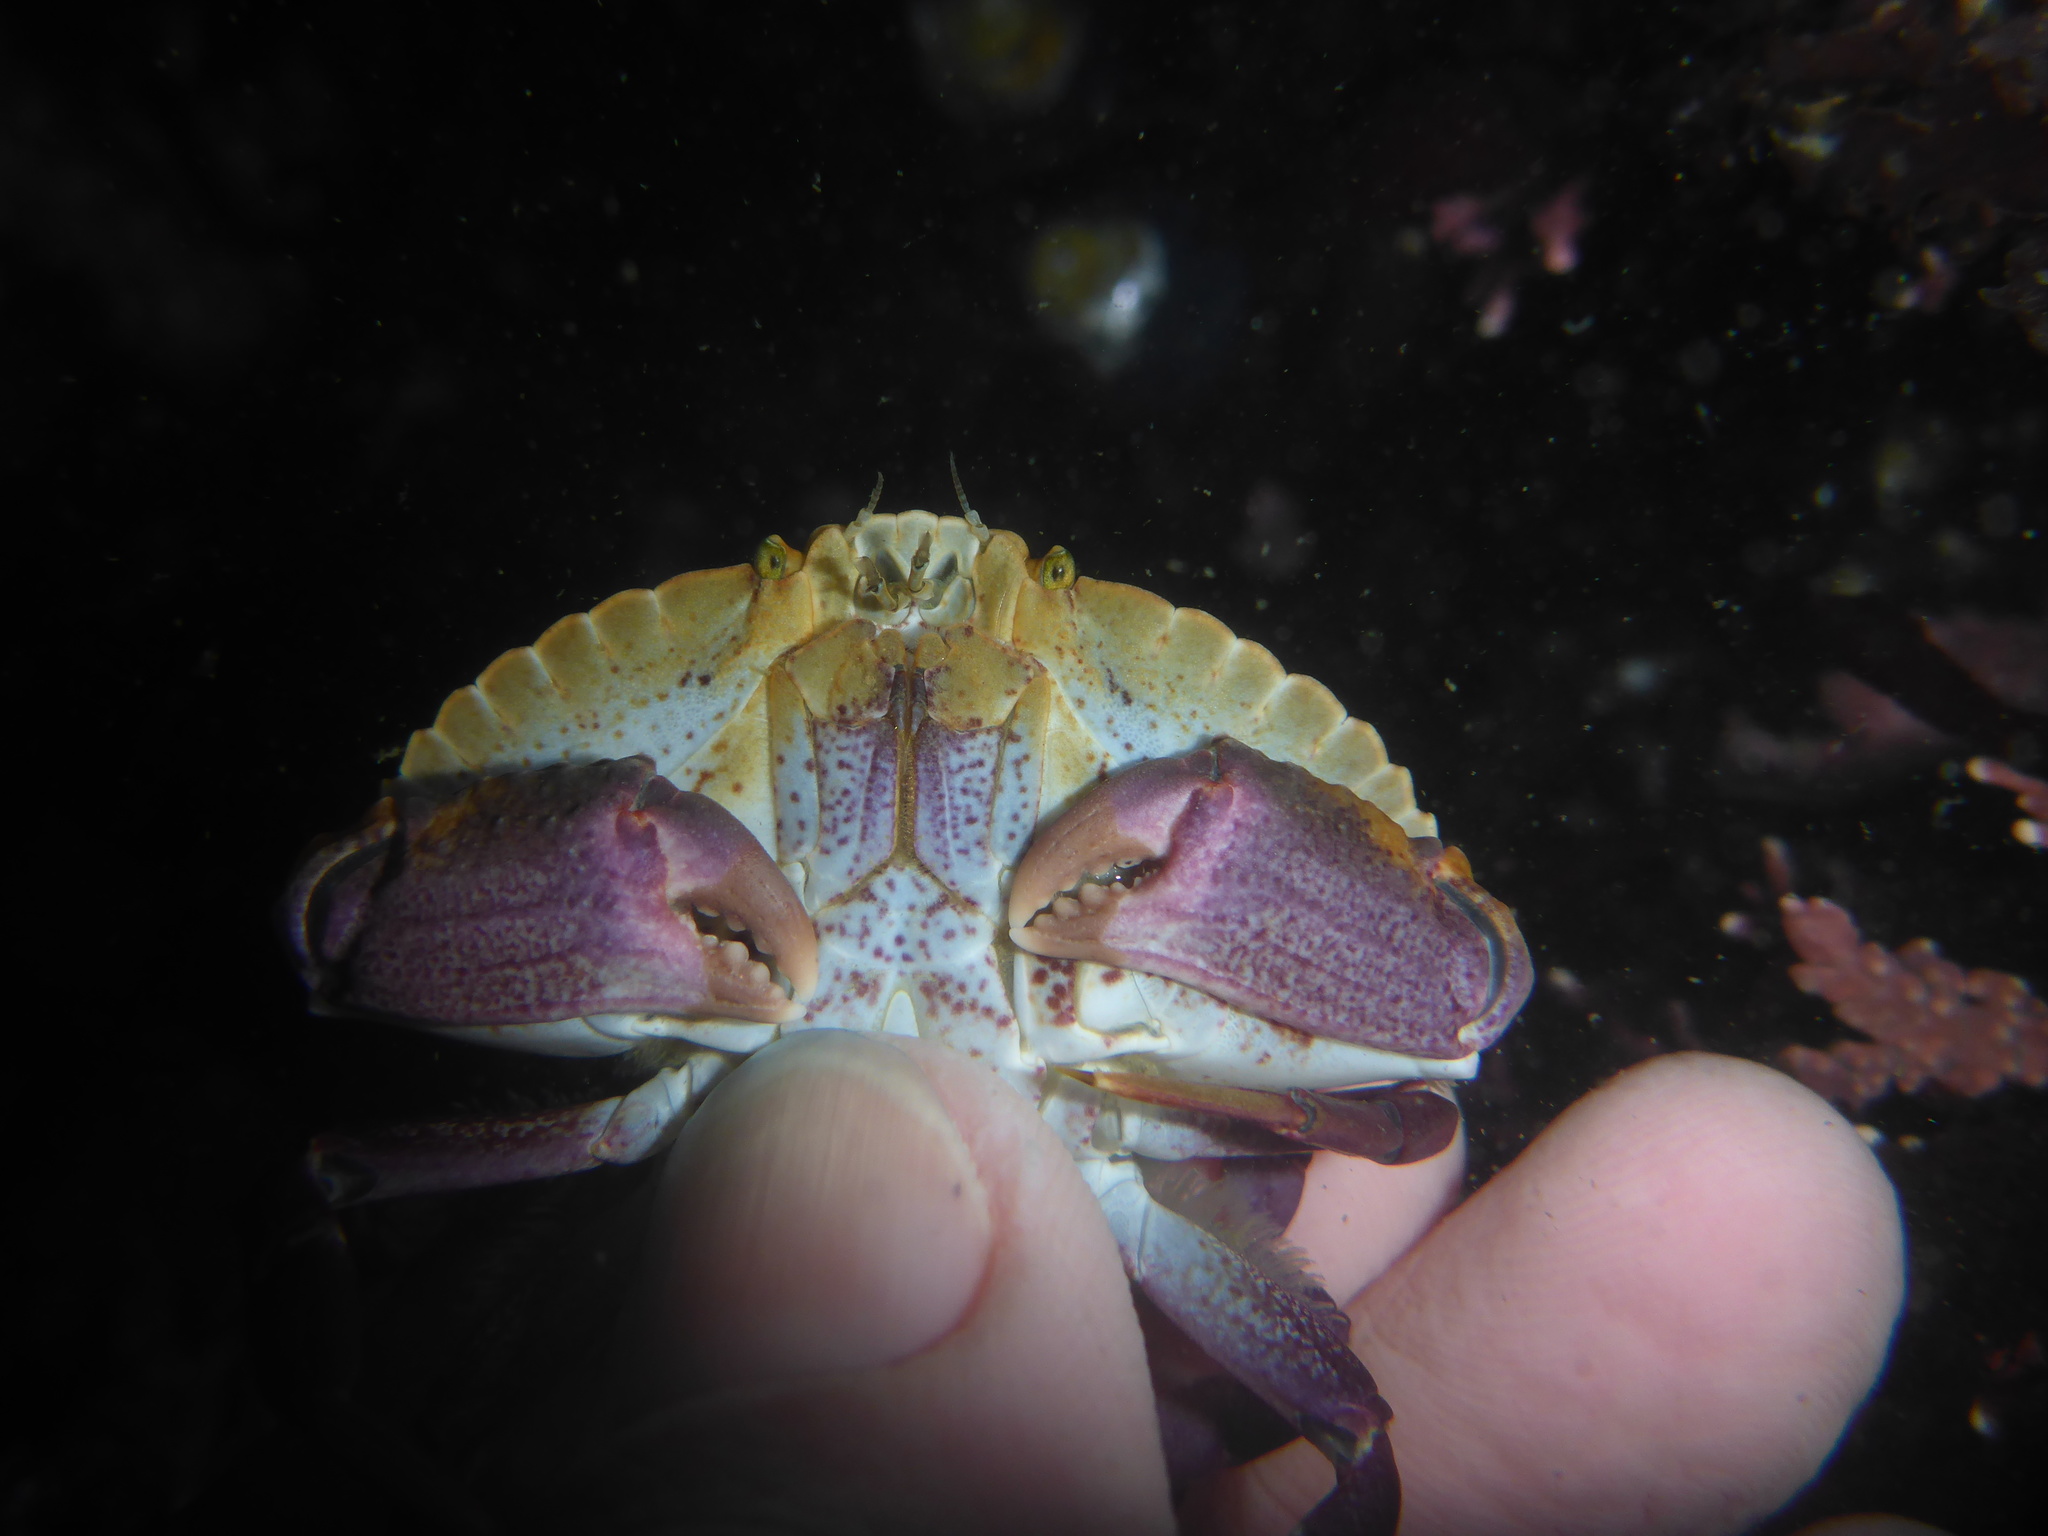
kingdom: Animalia
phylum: Arthropoda
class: Malacostraca
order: Decapoda
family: Cancridae
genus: Cancer
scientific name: Cancer productus
